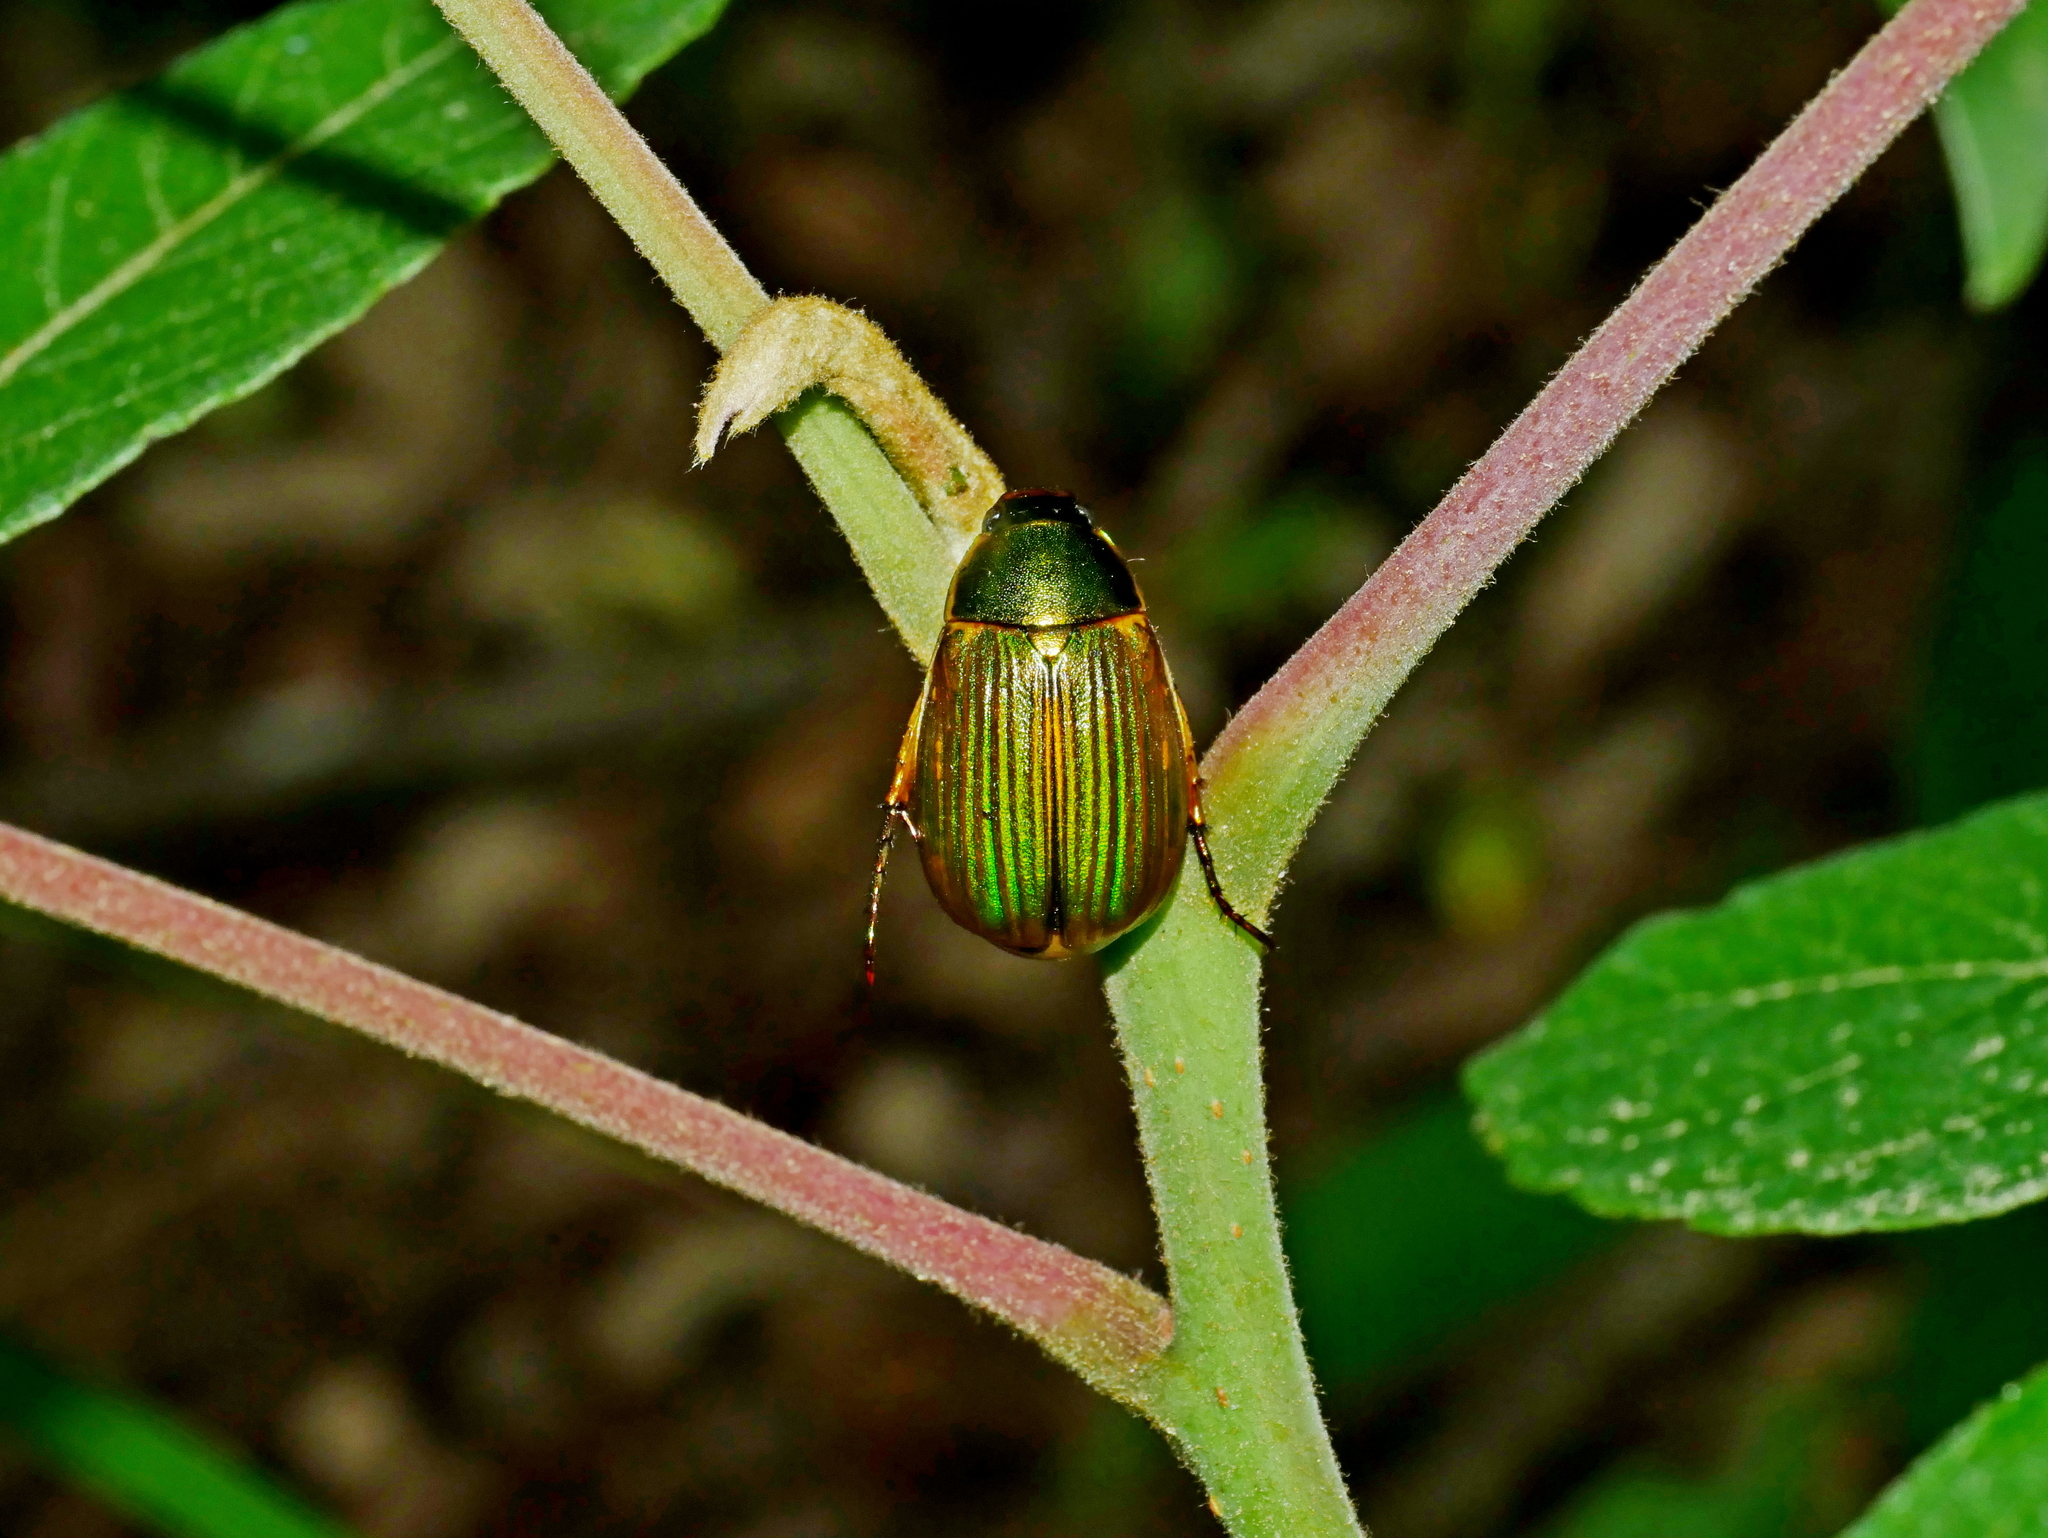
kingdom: Animalia
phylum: Arthropoda
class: Insecta
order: Coleoptera
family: Scarabaeidae
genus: Anomala
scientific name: Anomala aulacoides
